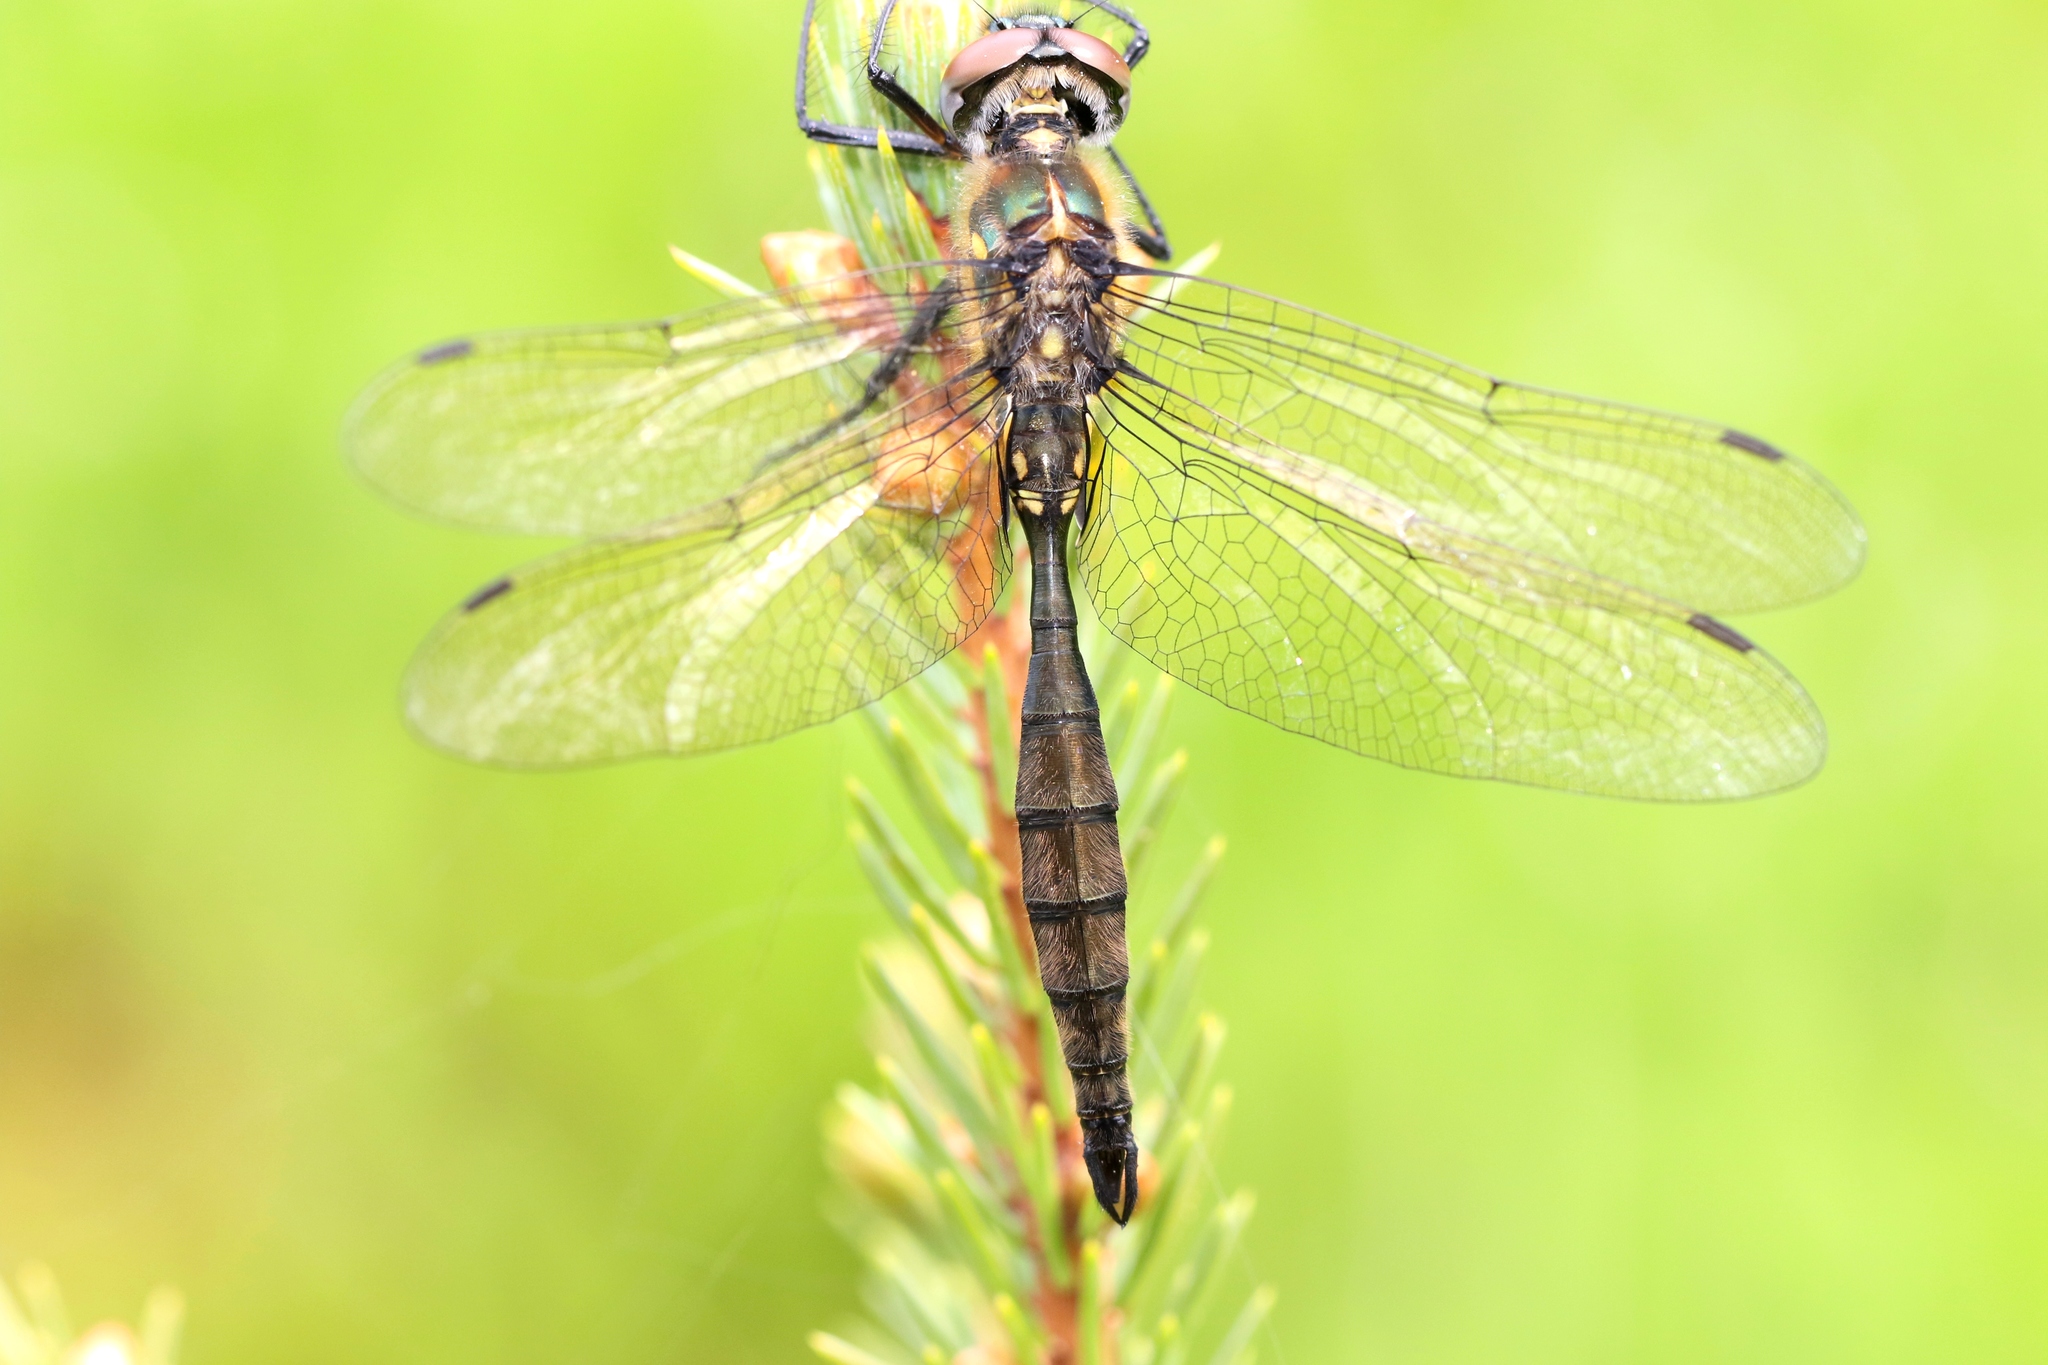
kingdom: Animalia
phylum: Arthropoda
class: Insecta
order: Odonata
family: Corduliidae
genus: Somatochlora
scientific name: Somatochlora minor
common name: Ocellated emerald
